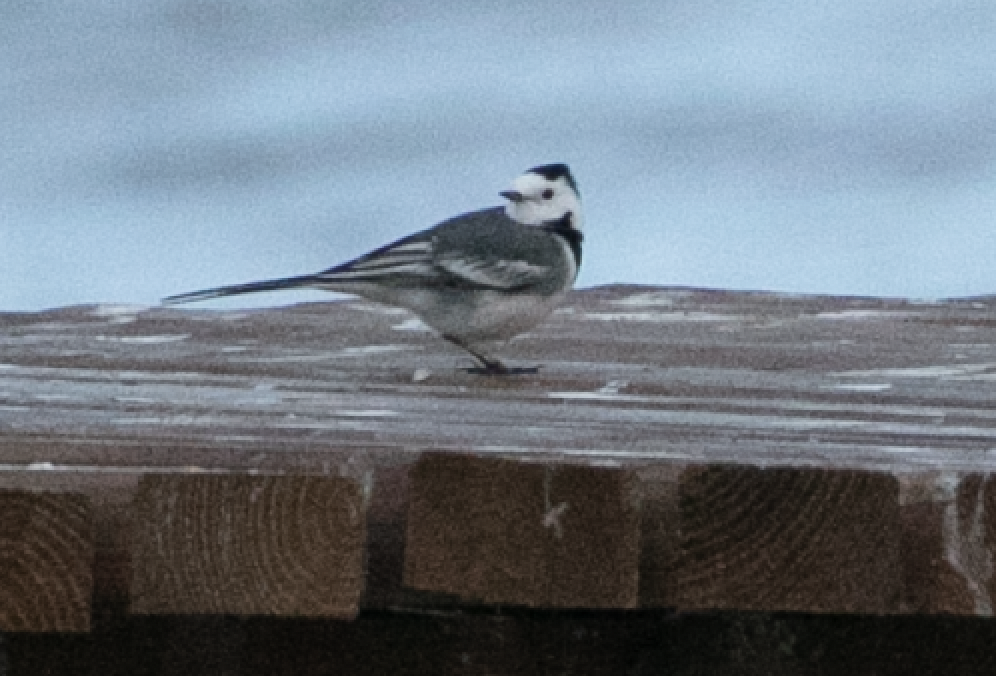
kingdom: Animalia
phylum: Chordata
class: Aves
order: Passeriformes
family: Motacillidae
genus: Motacilla
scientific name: Motacilla alba
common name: White wagtail
